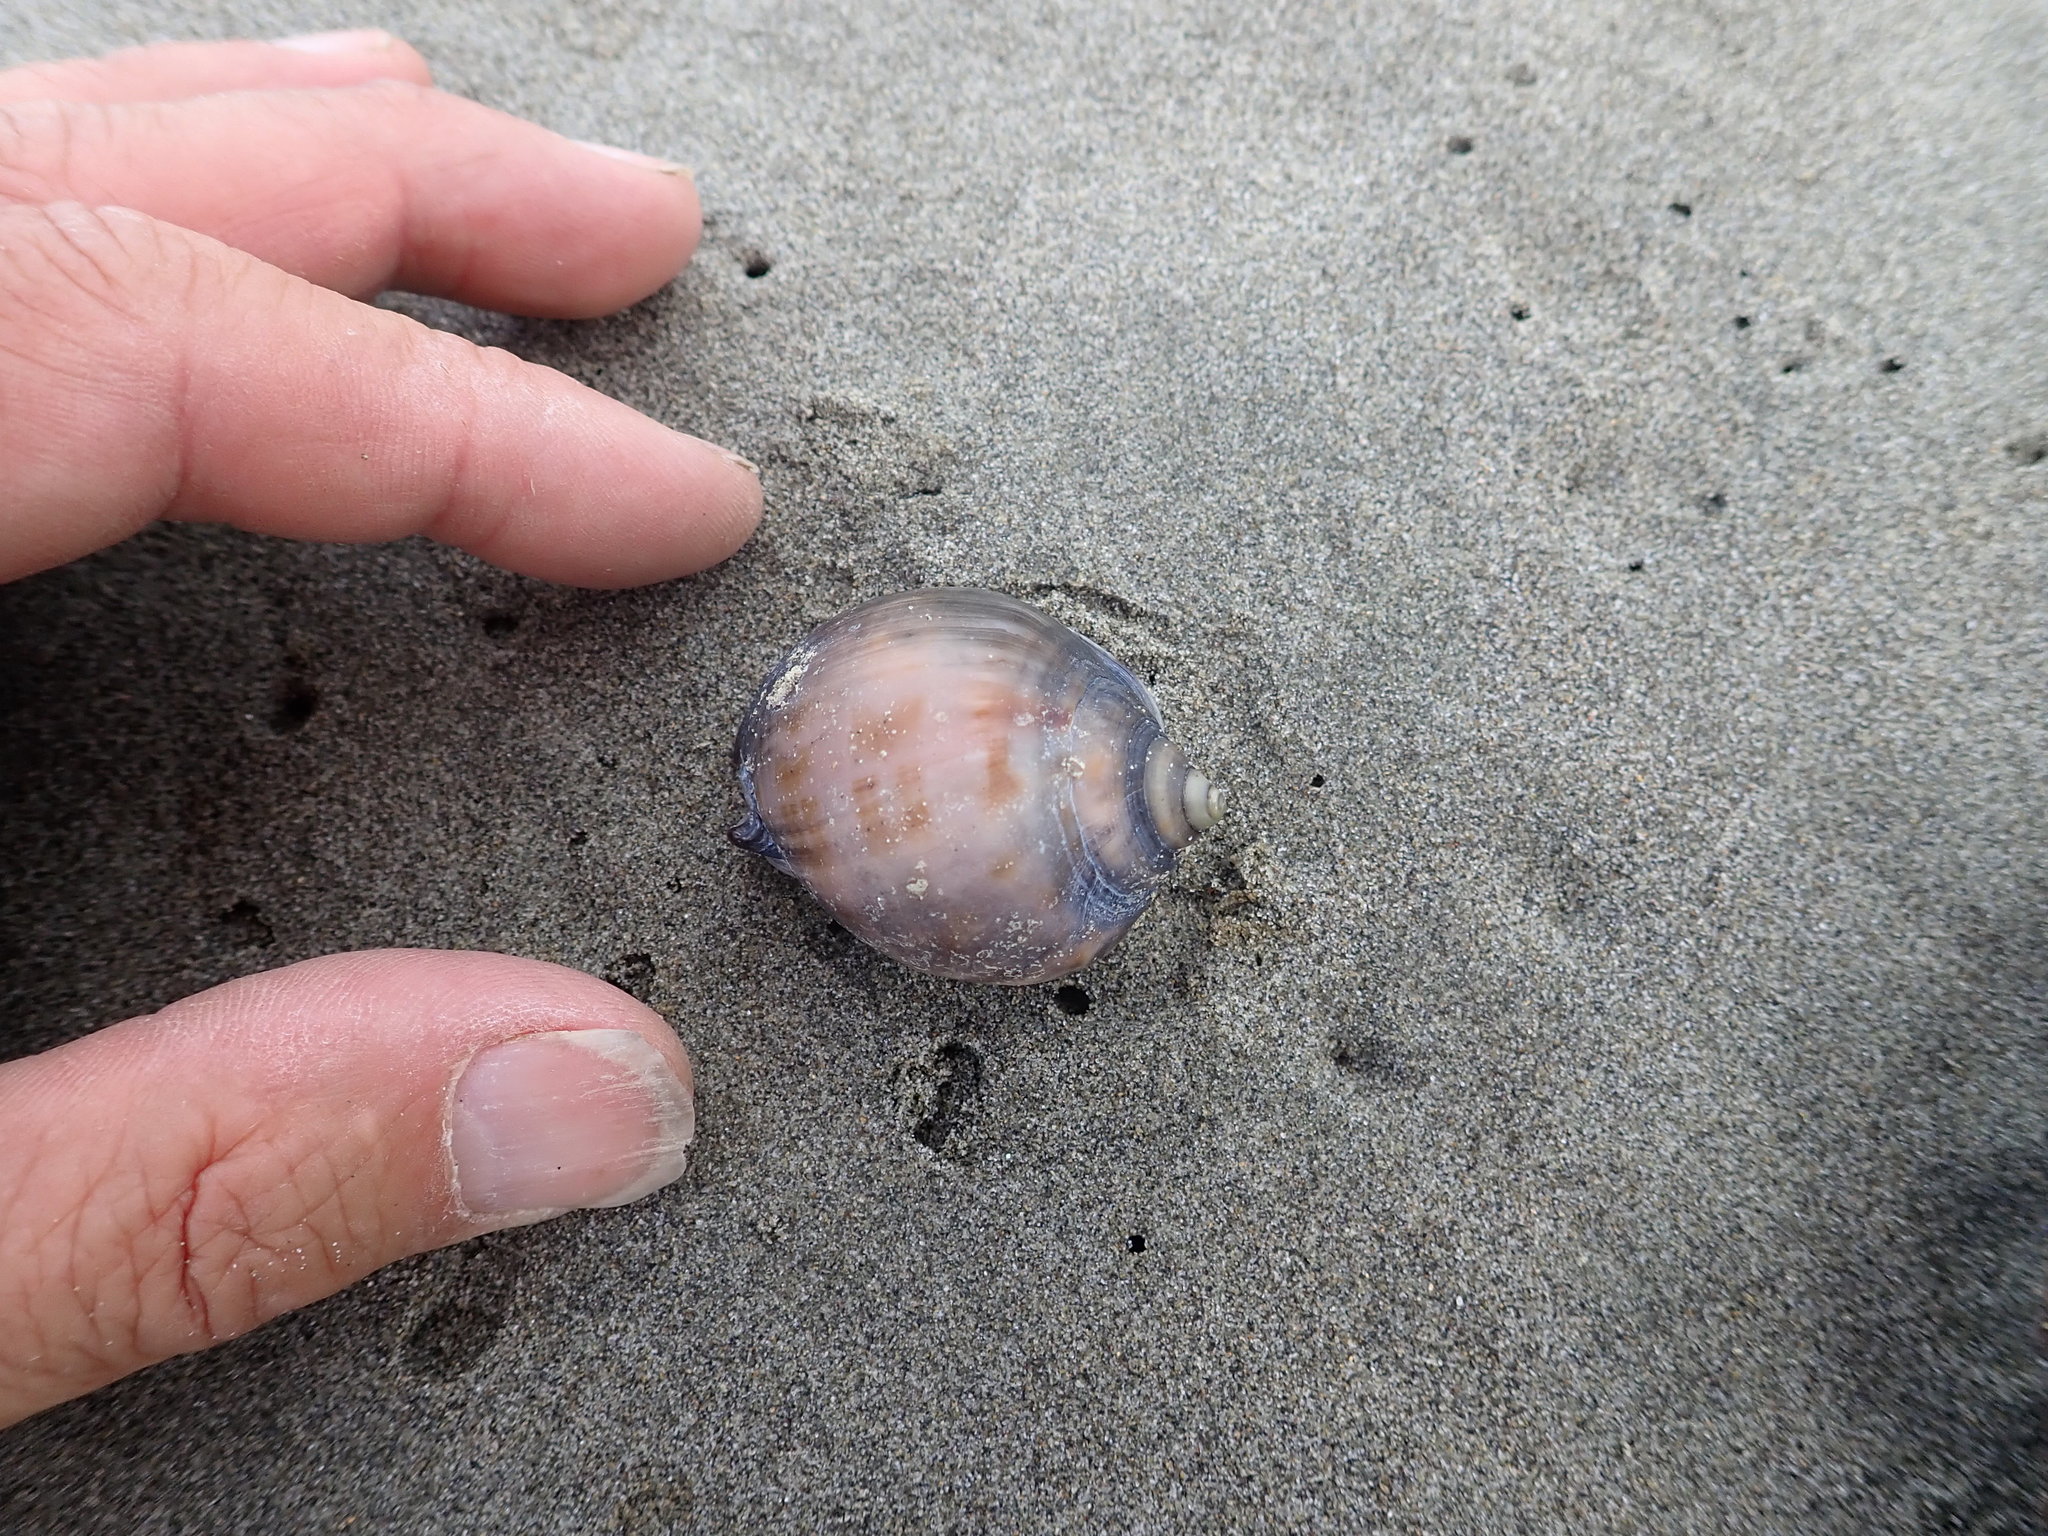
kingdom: Animalia
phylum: Mollusca
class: Gastropoda
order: Littorinimorpha
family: Cassidae
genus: Semicassis
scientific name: Semicassis pyrum
